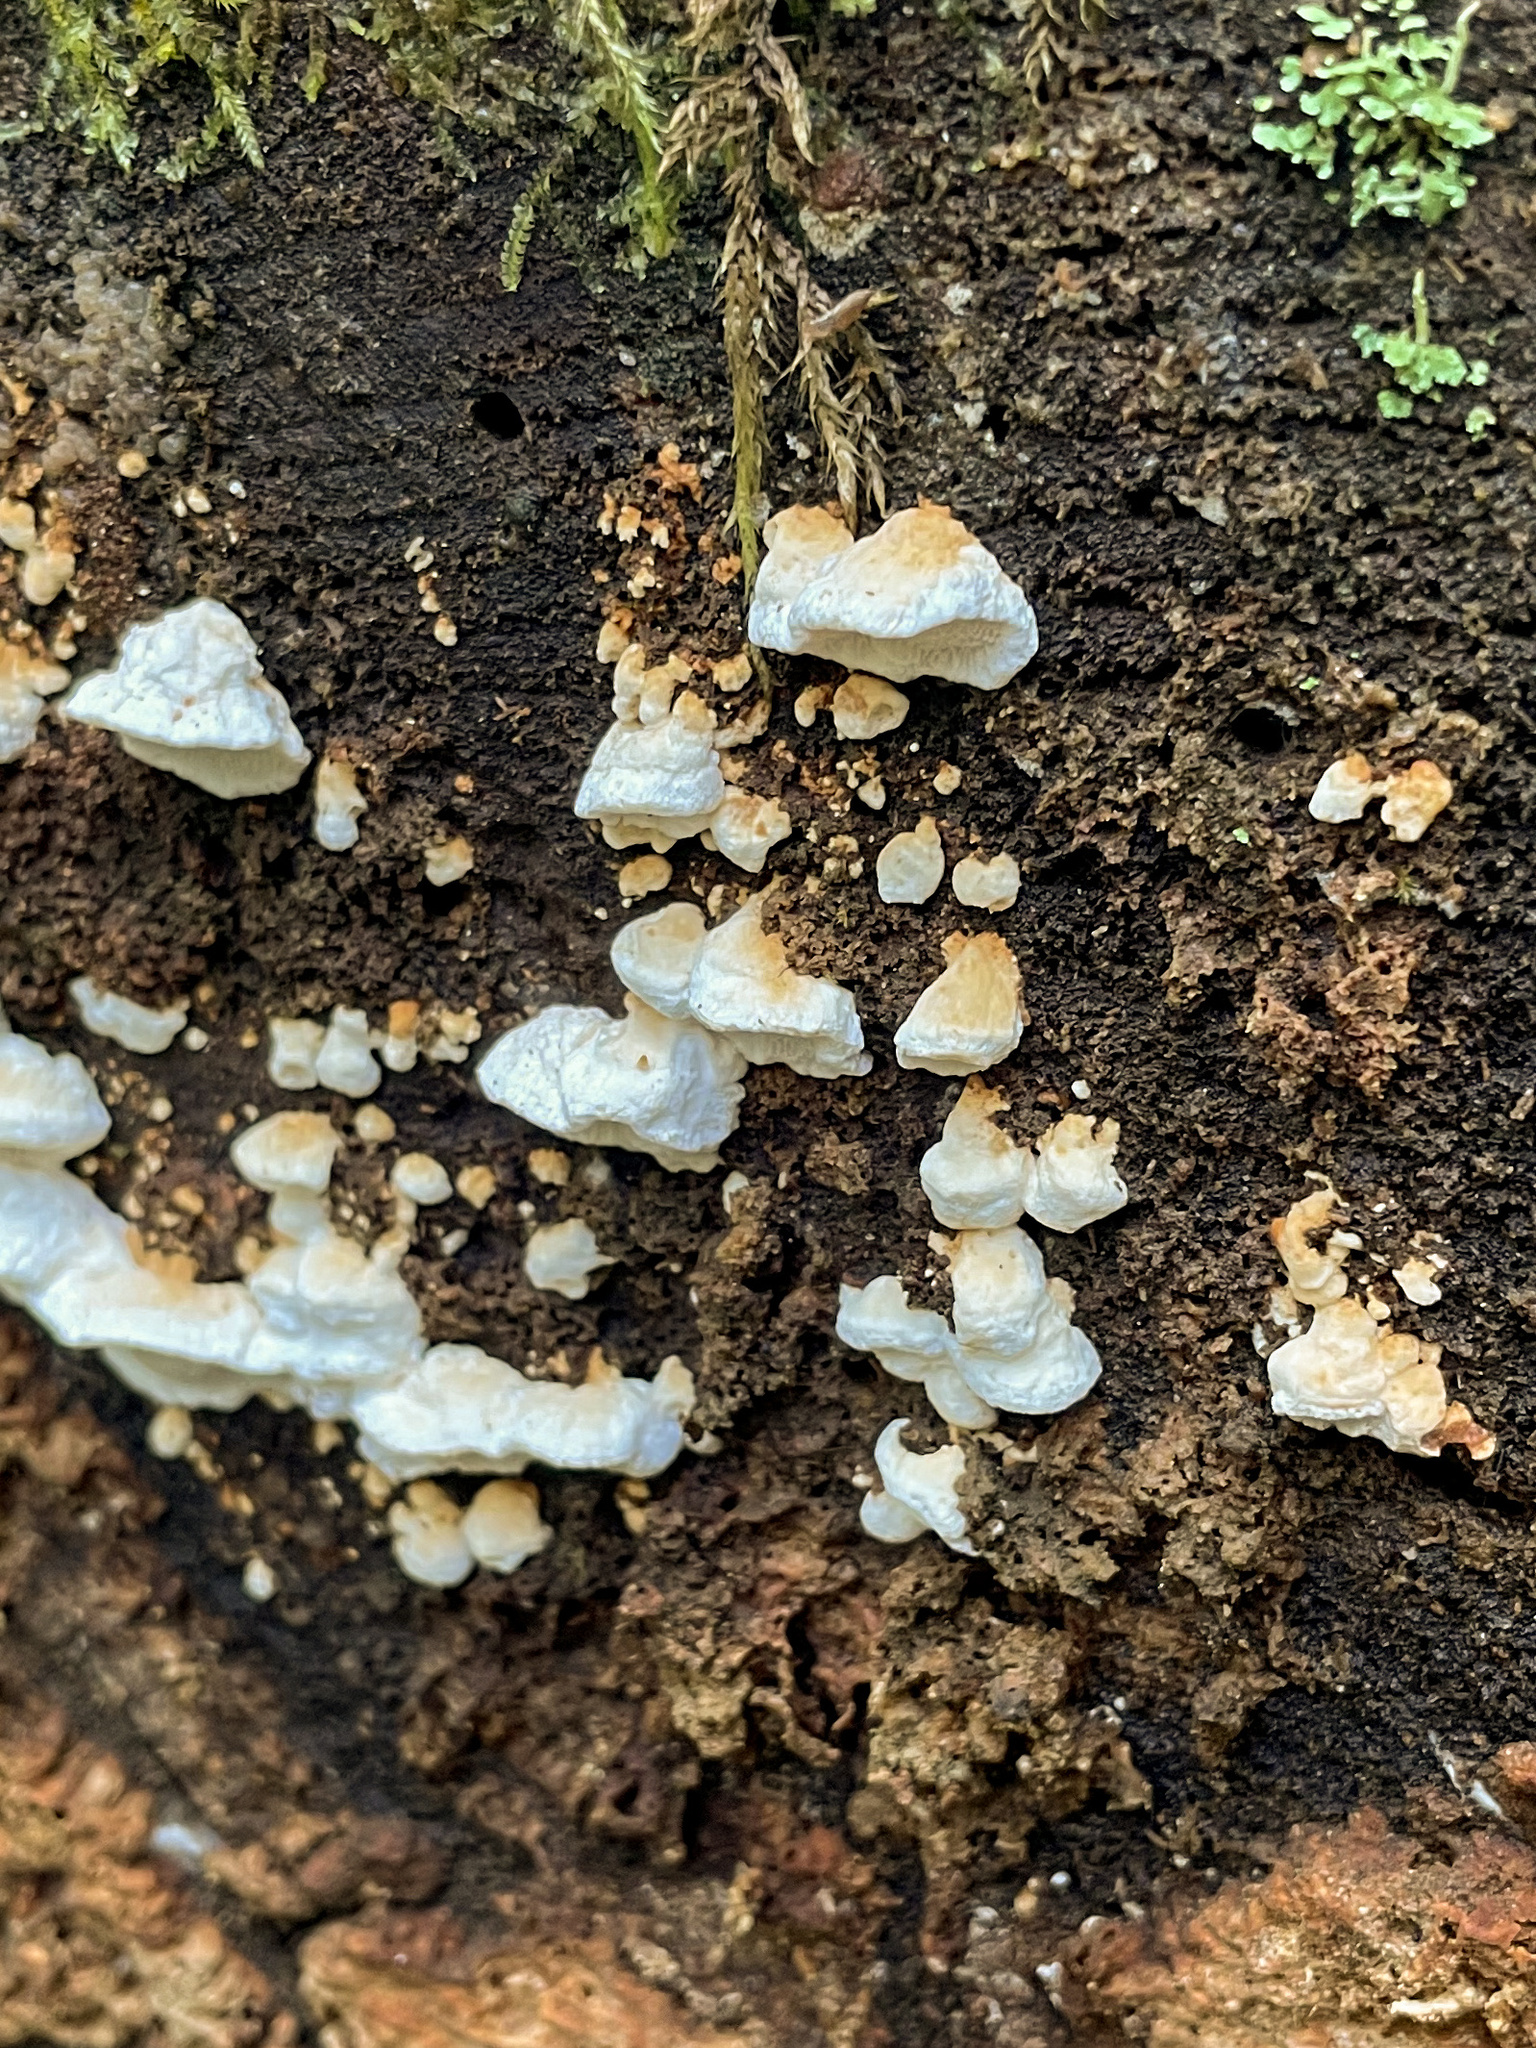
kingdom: Fungi
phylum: Basidiomycota
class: Agaricomycetes
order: Polyporales
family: Fomitopsidaceae
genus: Neoantrodia
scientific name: Neoantrodia serialis
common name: Serried porecrust
